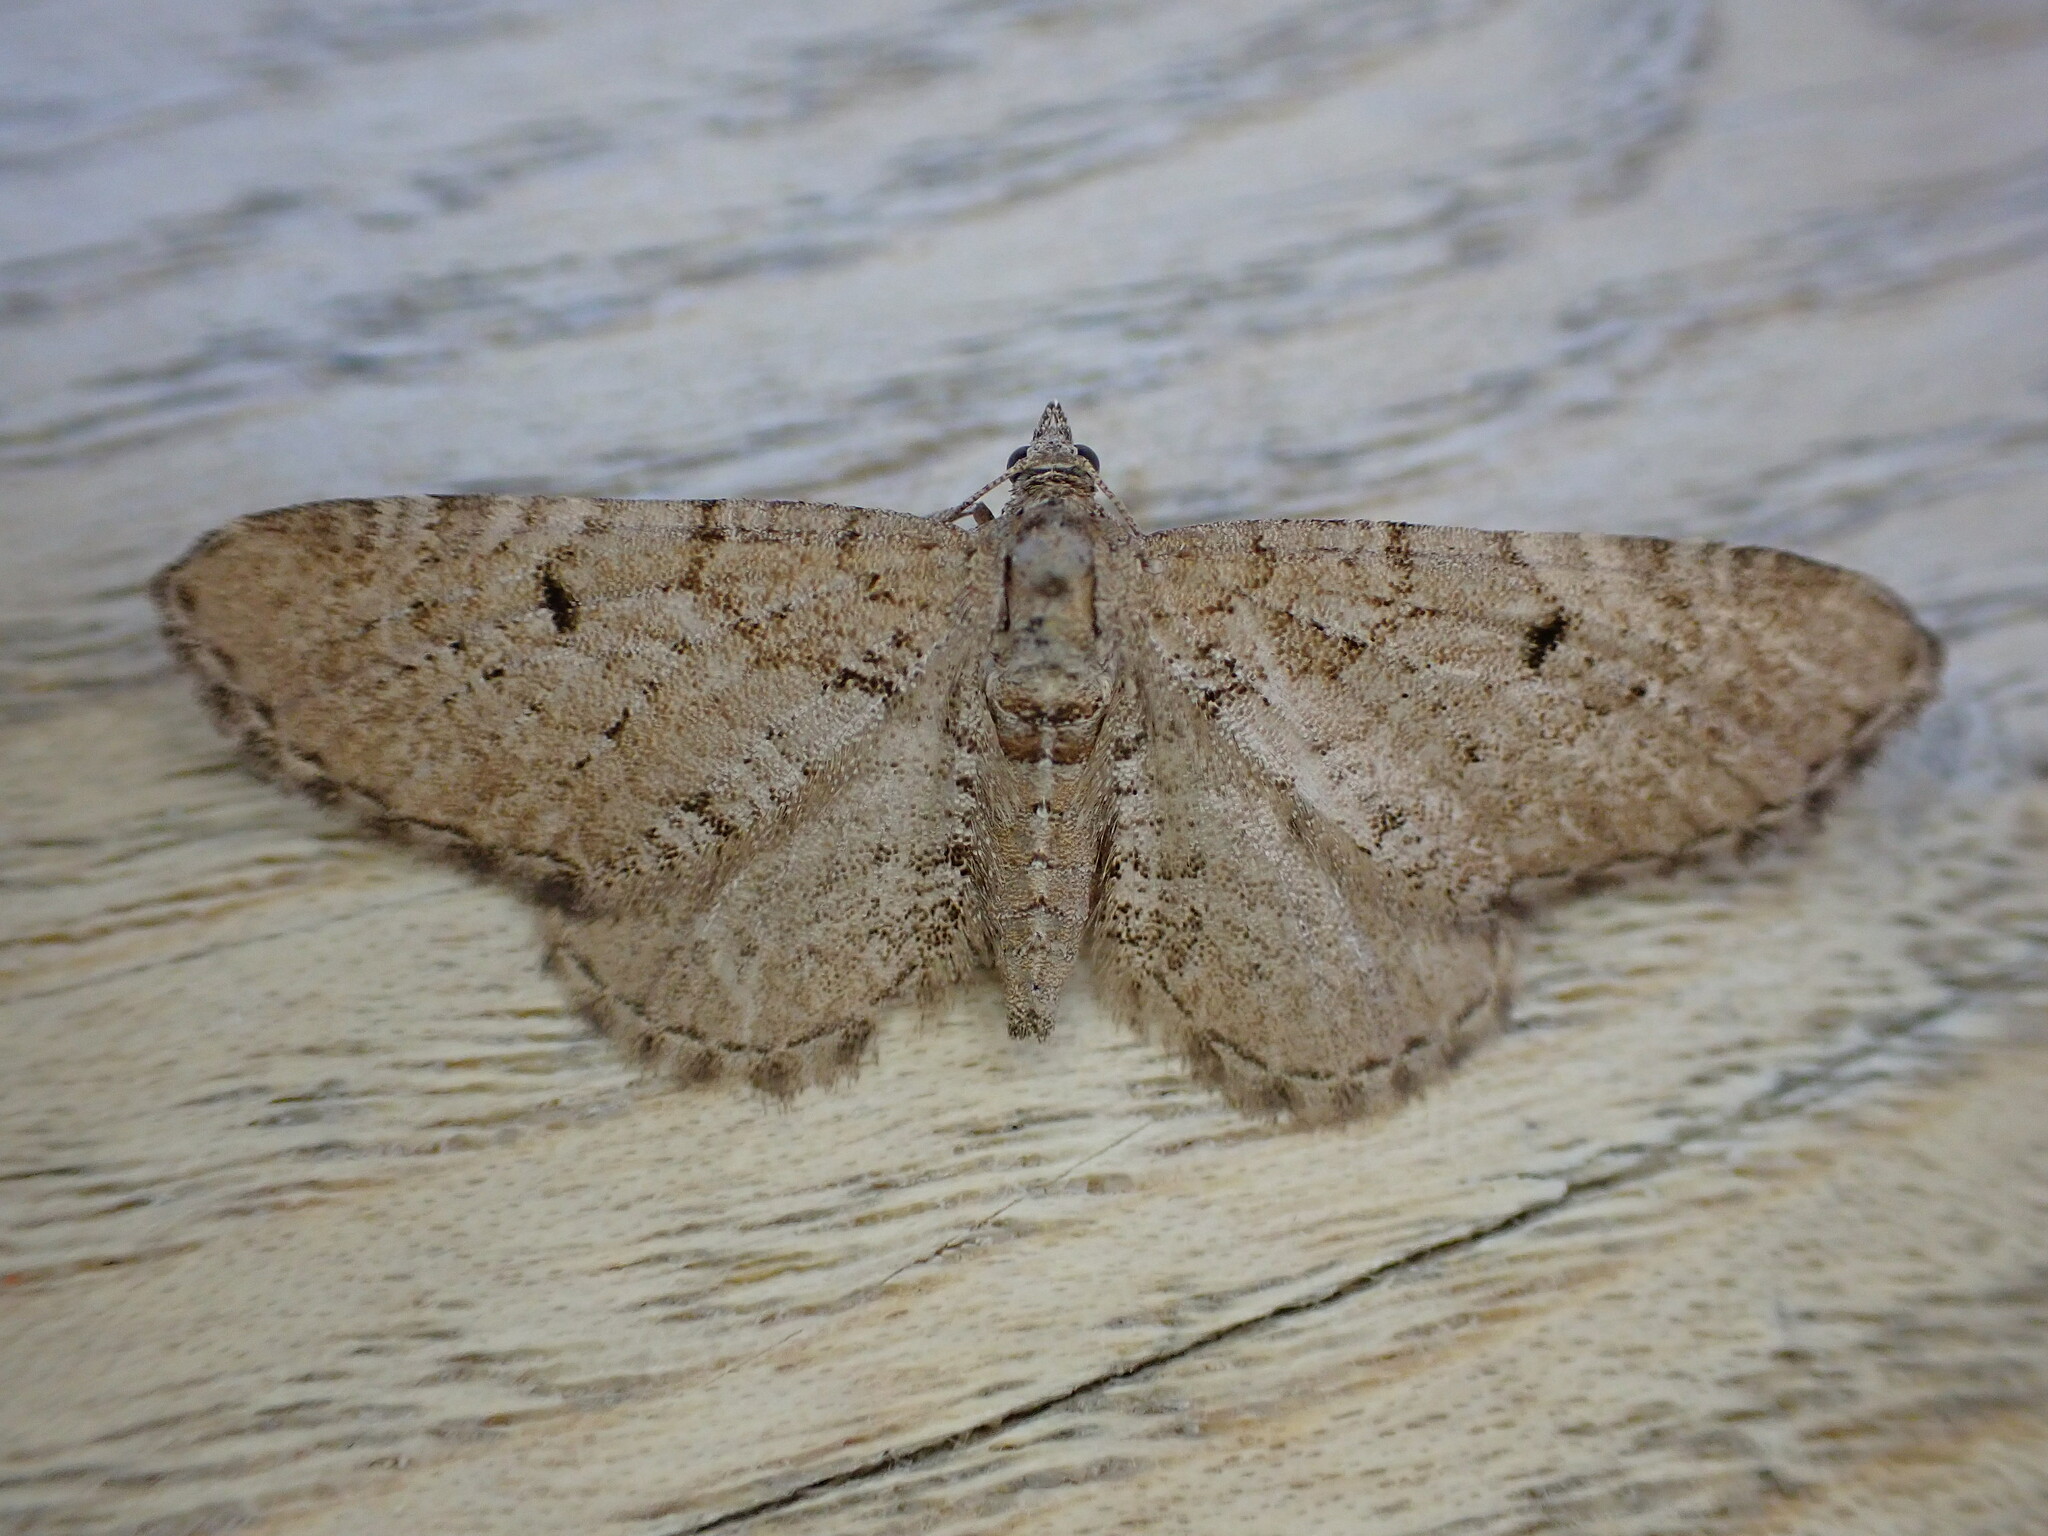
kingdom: Animalia
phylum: Arthropoda
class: Insecta
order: Lepidoptera
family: Geometridae
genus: Eupithecia
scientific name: Eupithecia intricata
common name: Freyers pug
